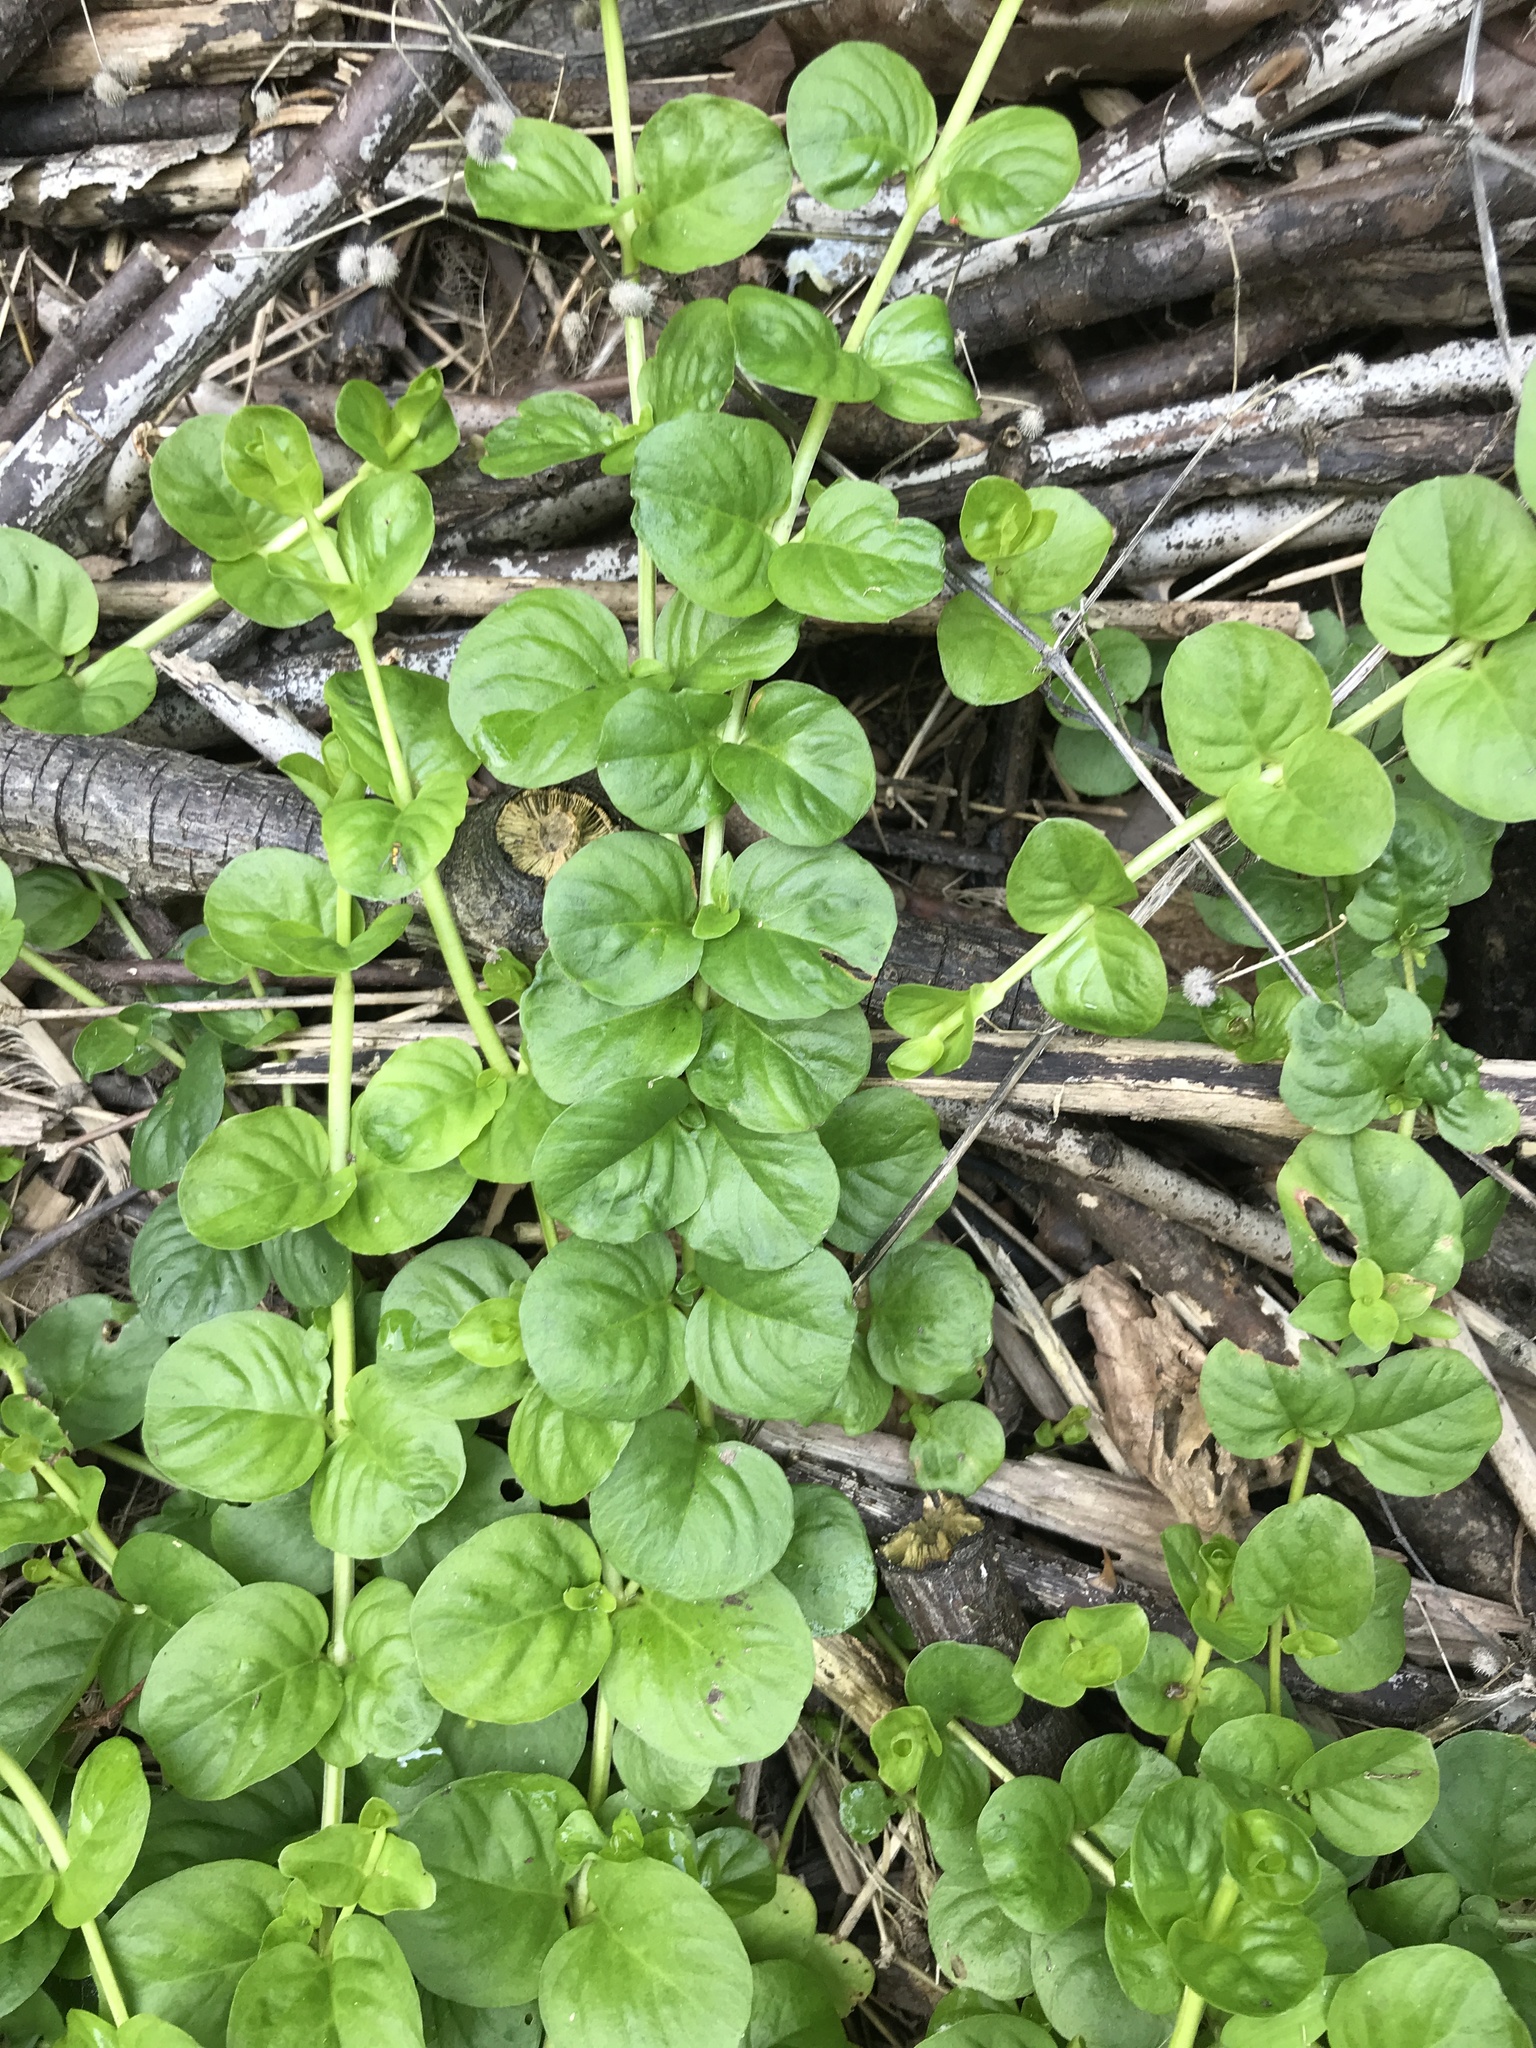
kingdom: Plantae
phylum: Tracheophyta
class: Magnoliopsida
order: Ericales
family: Primulaceae
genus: Lysimachia
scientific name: Lysimachia nummularia
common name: Moneywort
